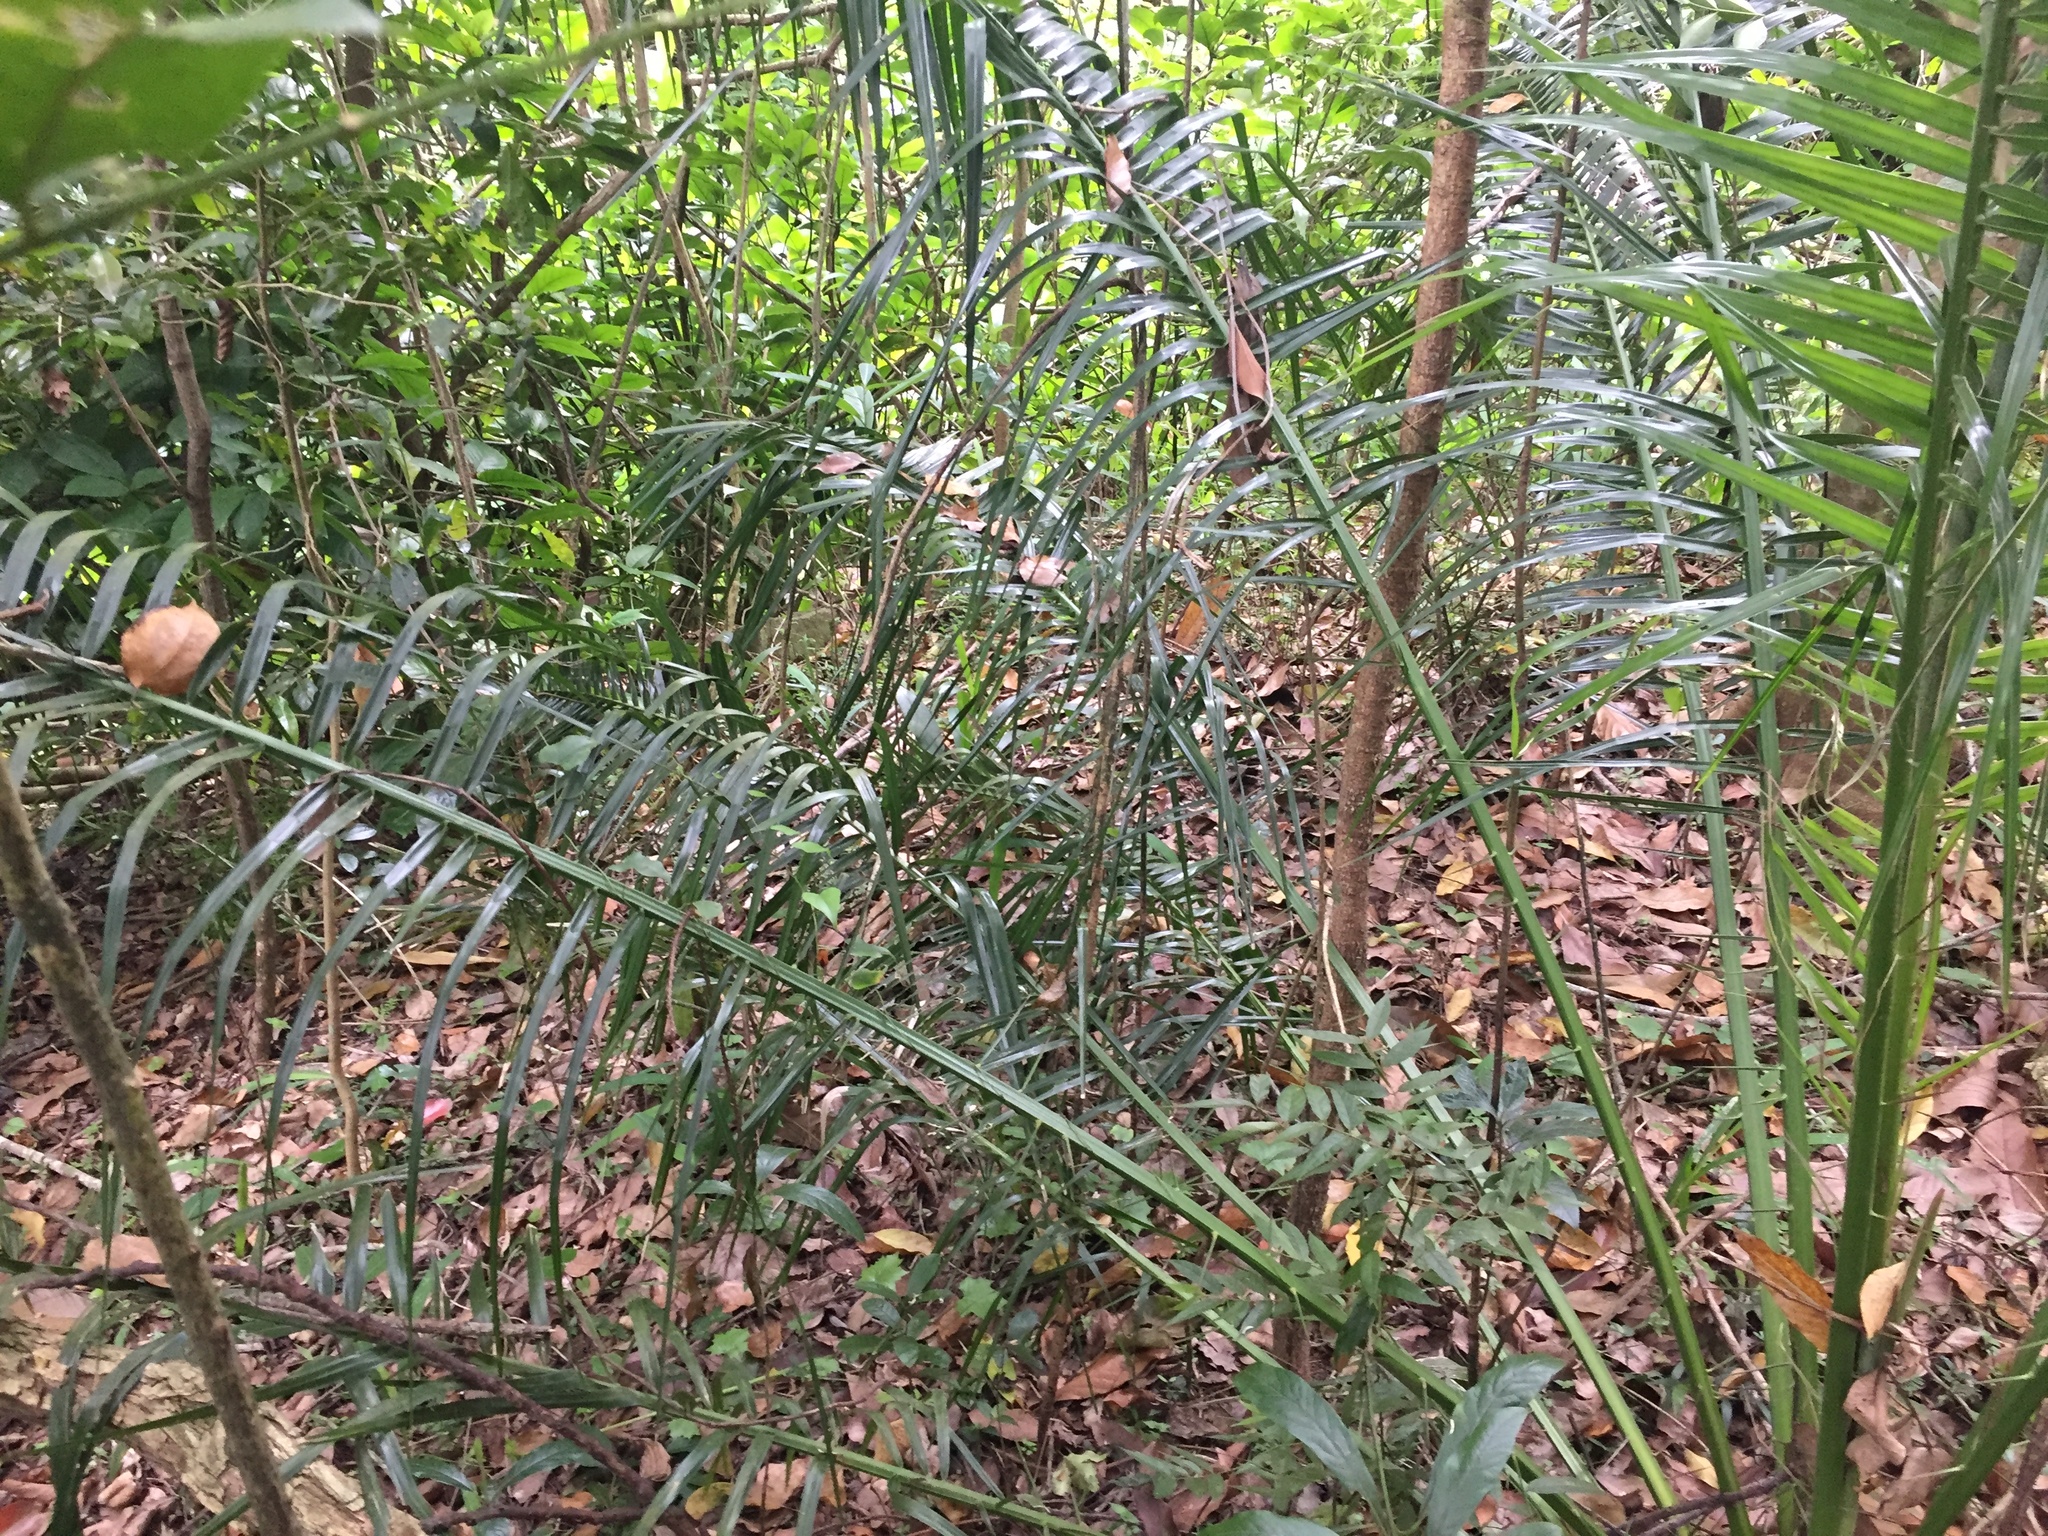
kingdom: Plantae
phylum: Tracheophyta
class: Liliopsida
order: Arecales
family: Arecaceae
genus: Phoenix
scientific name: Phoenix reclinata
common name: Senegal date palm
